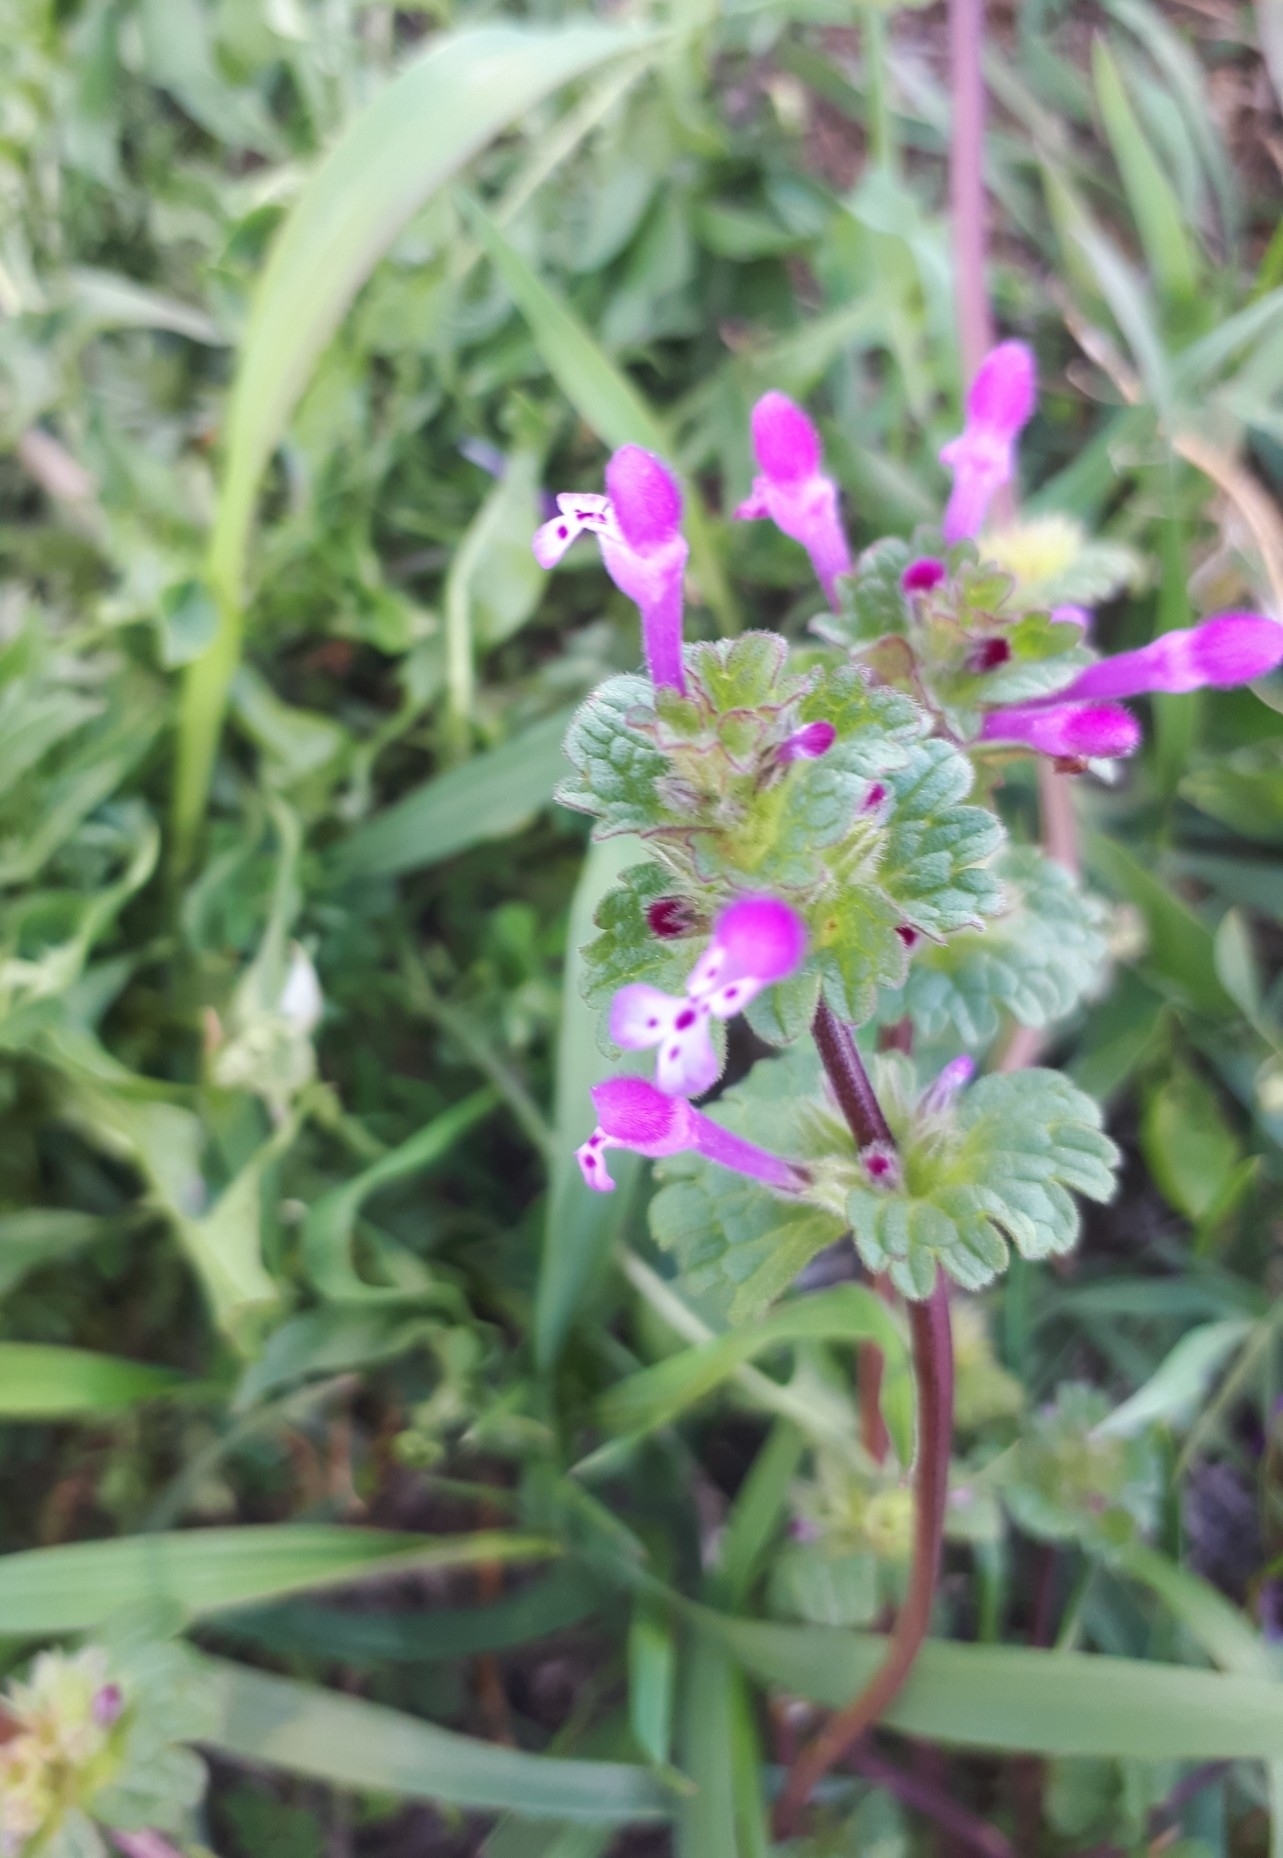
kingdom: Plantae
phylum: Tracheophyta
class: Magnoliopsida
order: Lamiales
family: Lamiaceae
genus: Lamium
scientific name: Lamium amplexicaule
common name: Henbit dead-nettle
